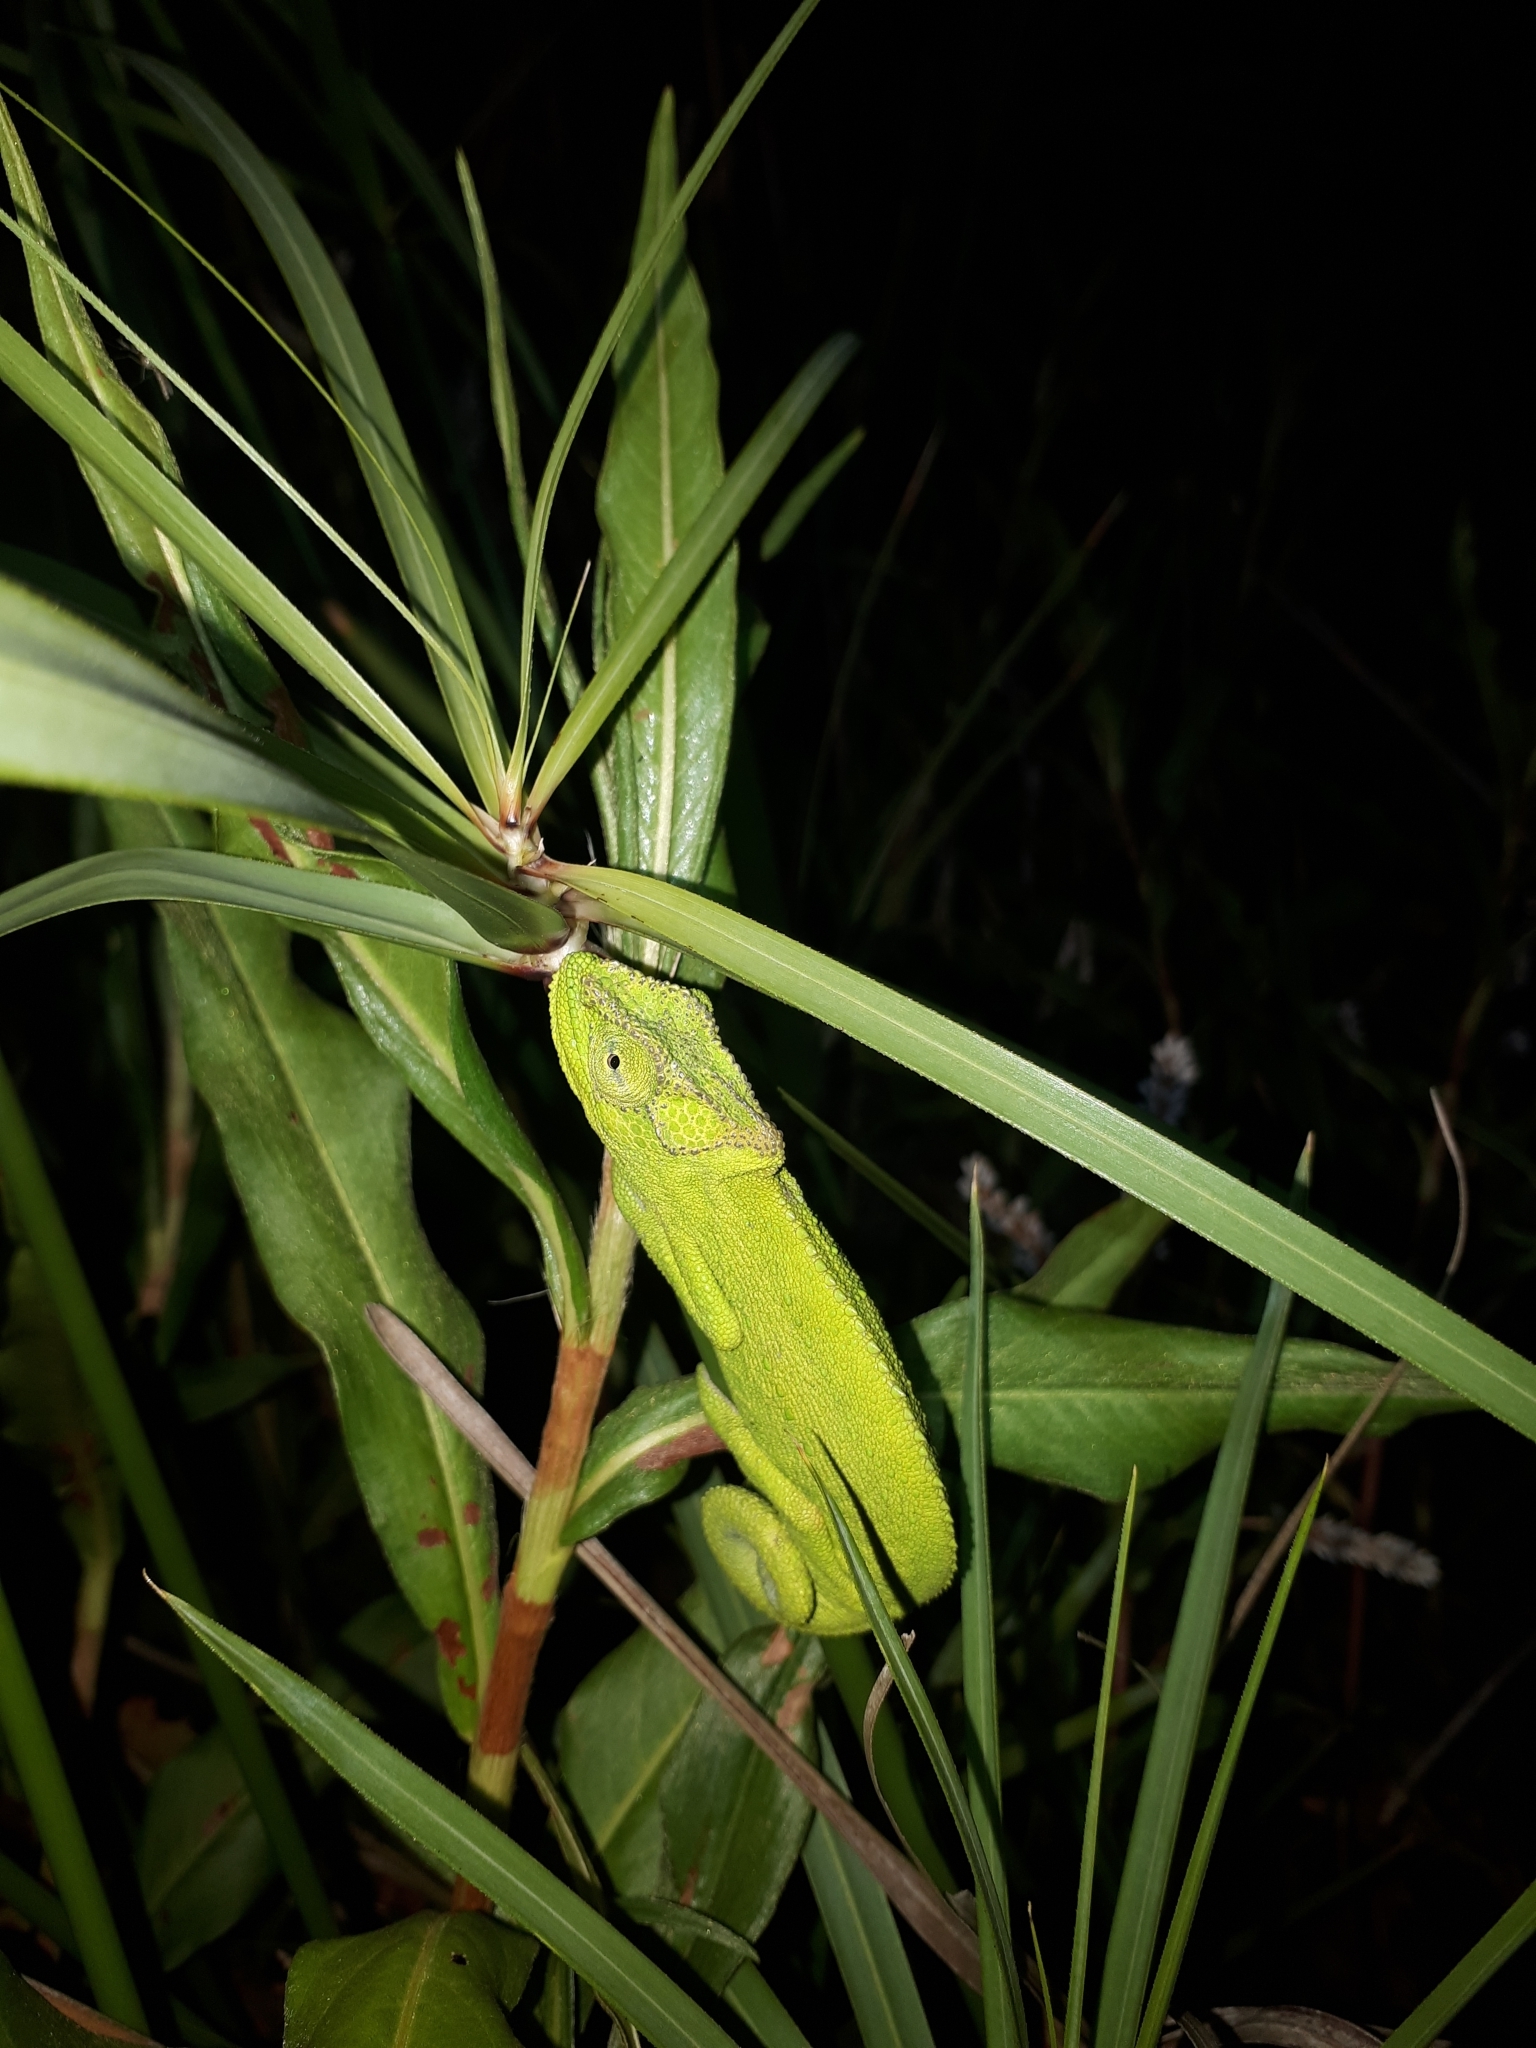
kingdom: Animalia
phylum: Chordata
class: Squamata
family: Chamaeleonidae
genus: Bradypodion
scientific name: Bradypodion pumilum
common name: Cape dwarf chameleon
